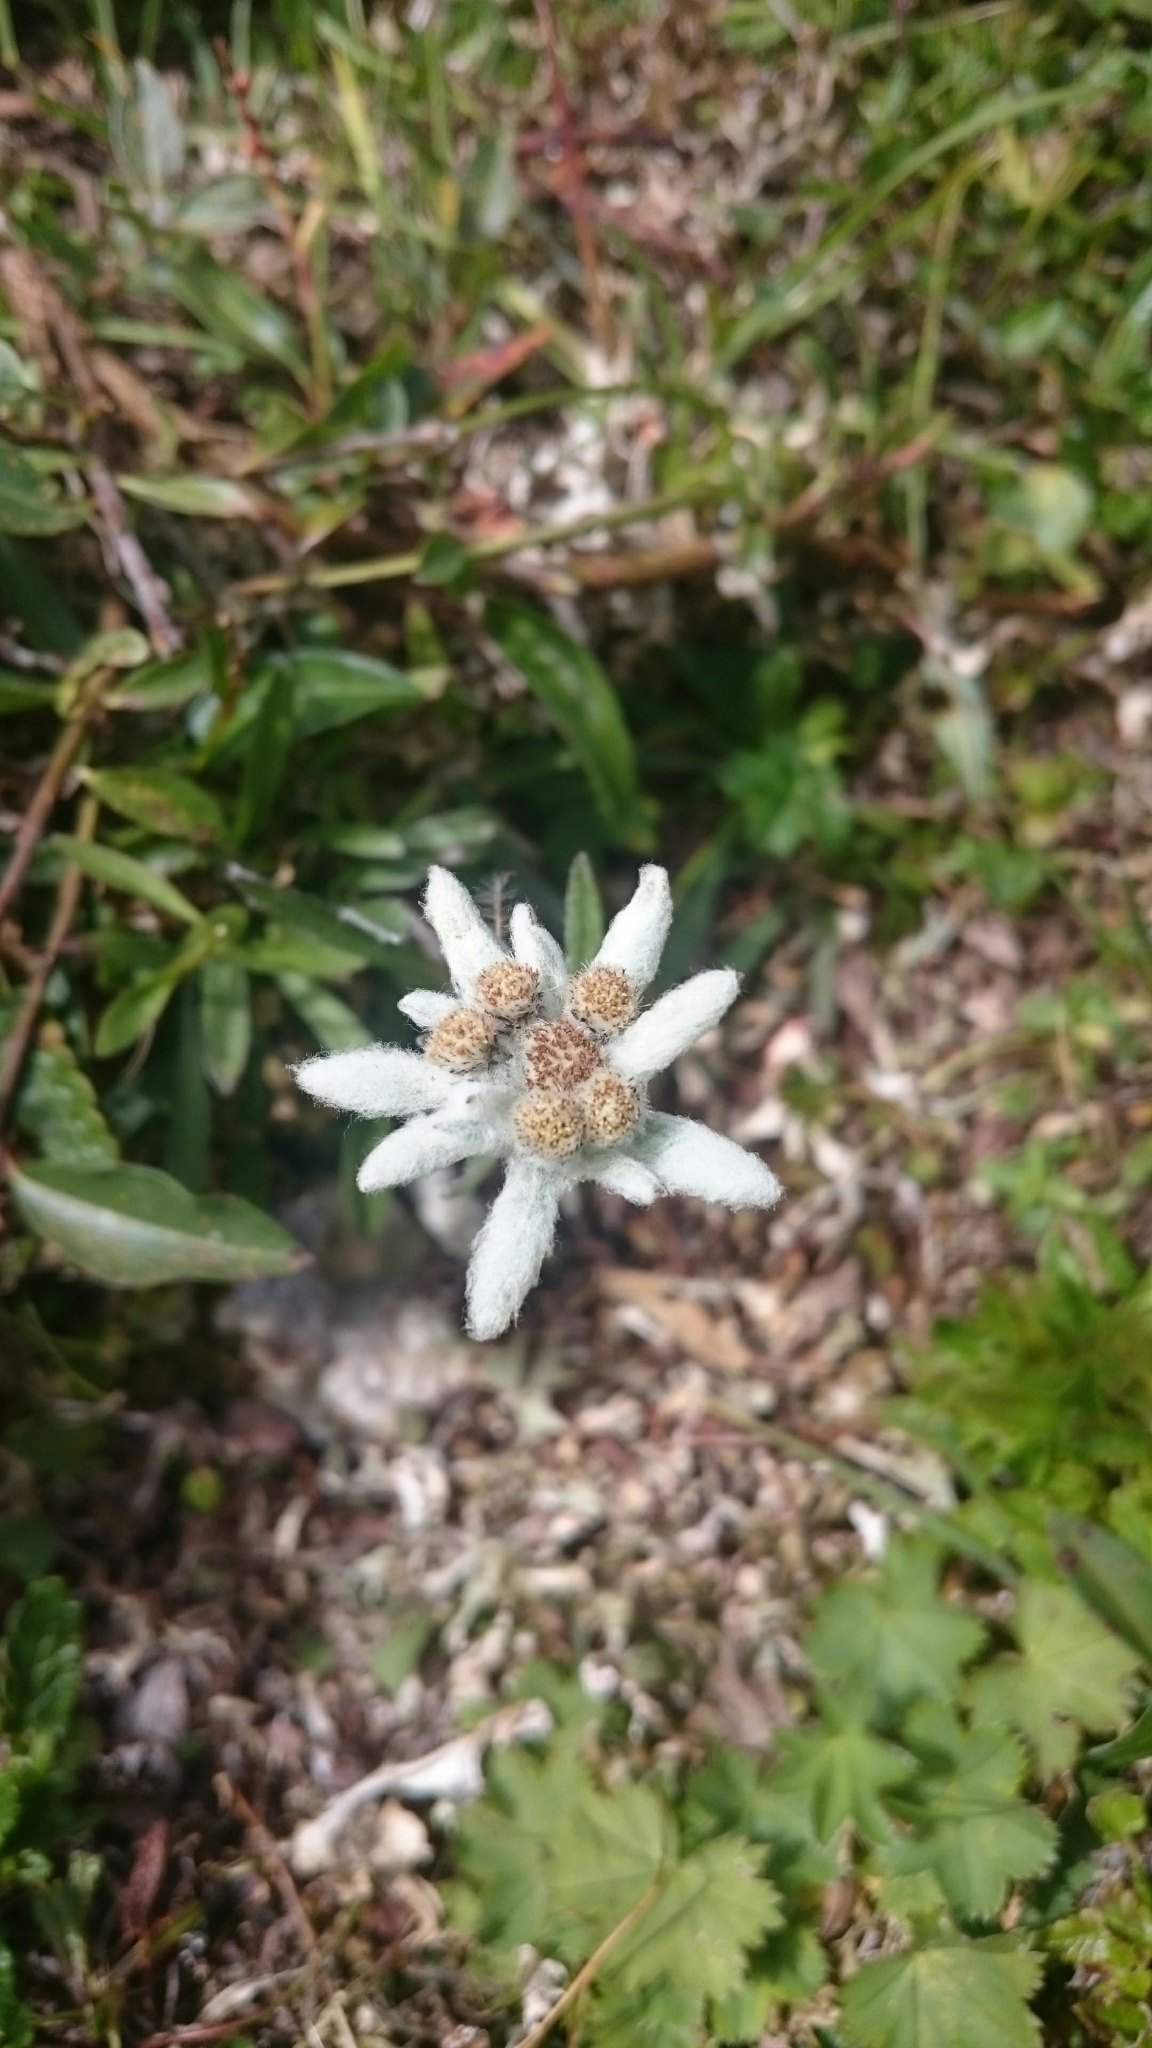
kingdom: Plantae
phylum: Tracheophyta
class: Magnoliopsida
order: Asterales
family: Asteraceae
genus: Leontopodium
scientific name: Leontopodium nivale
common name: Edelweiss
